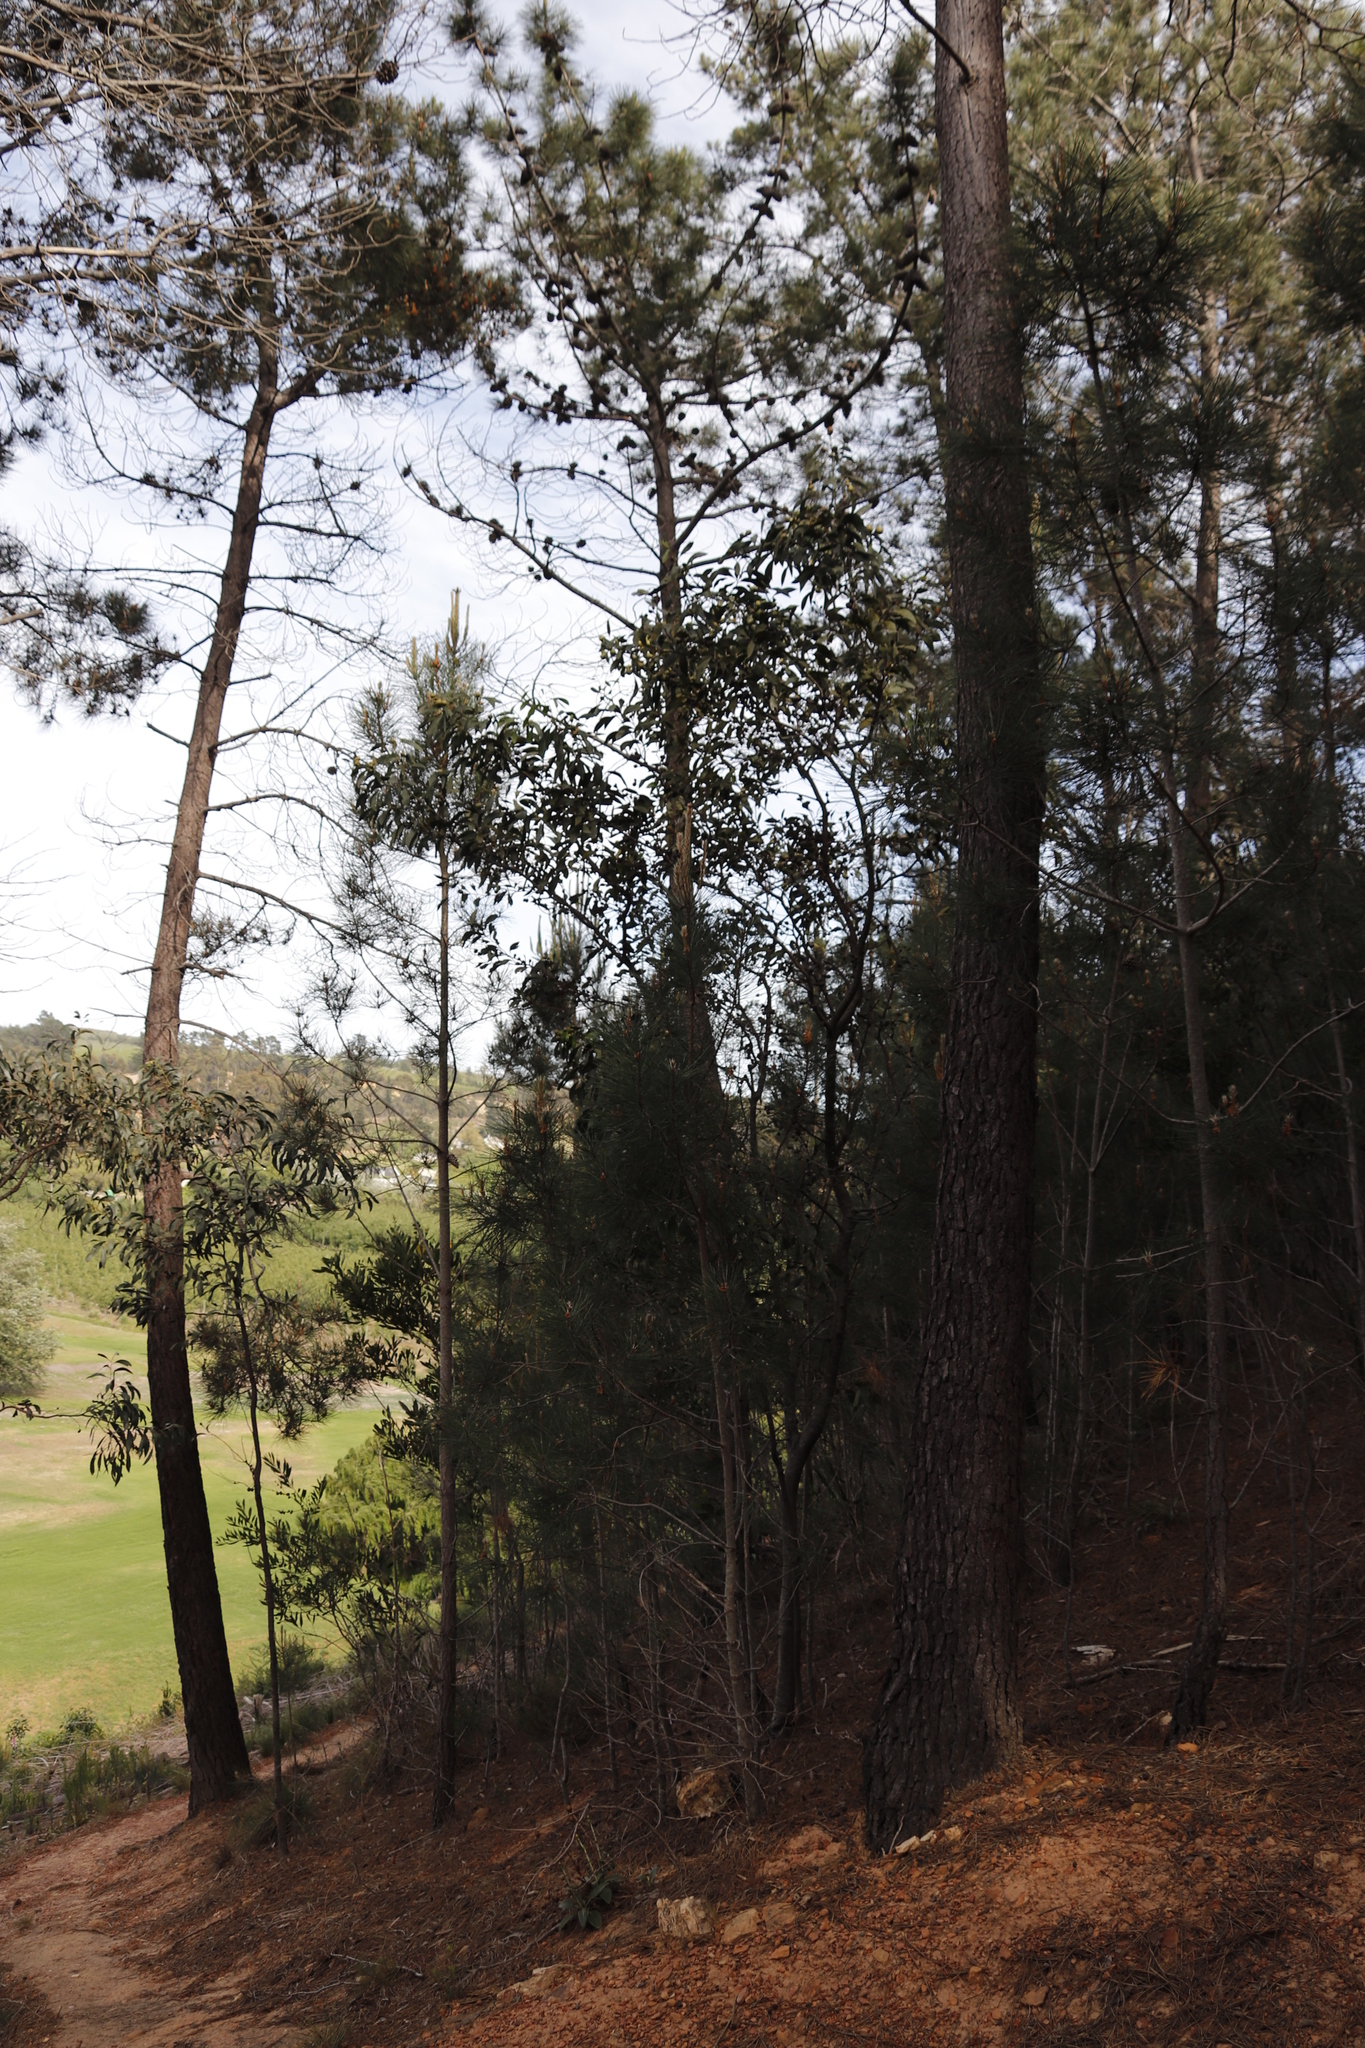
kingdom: Animalia
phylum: Arthropoda
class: Insecta
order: Hymenoptera
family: Pteromalidae
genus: Trichilogaster
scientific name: Trichilogaster signiventris
